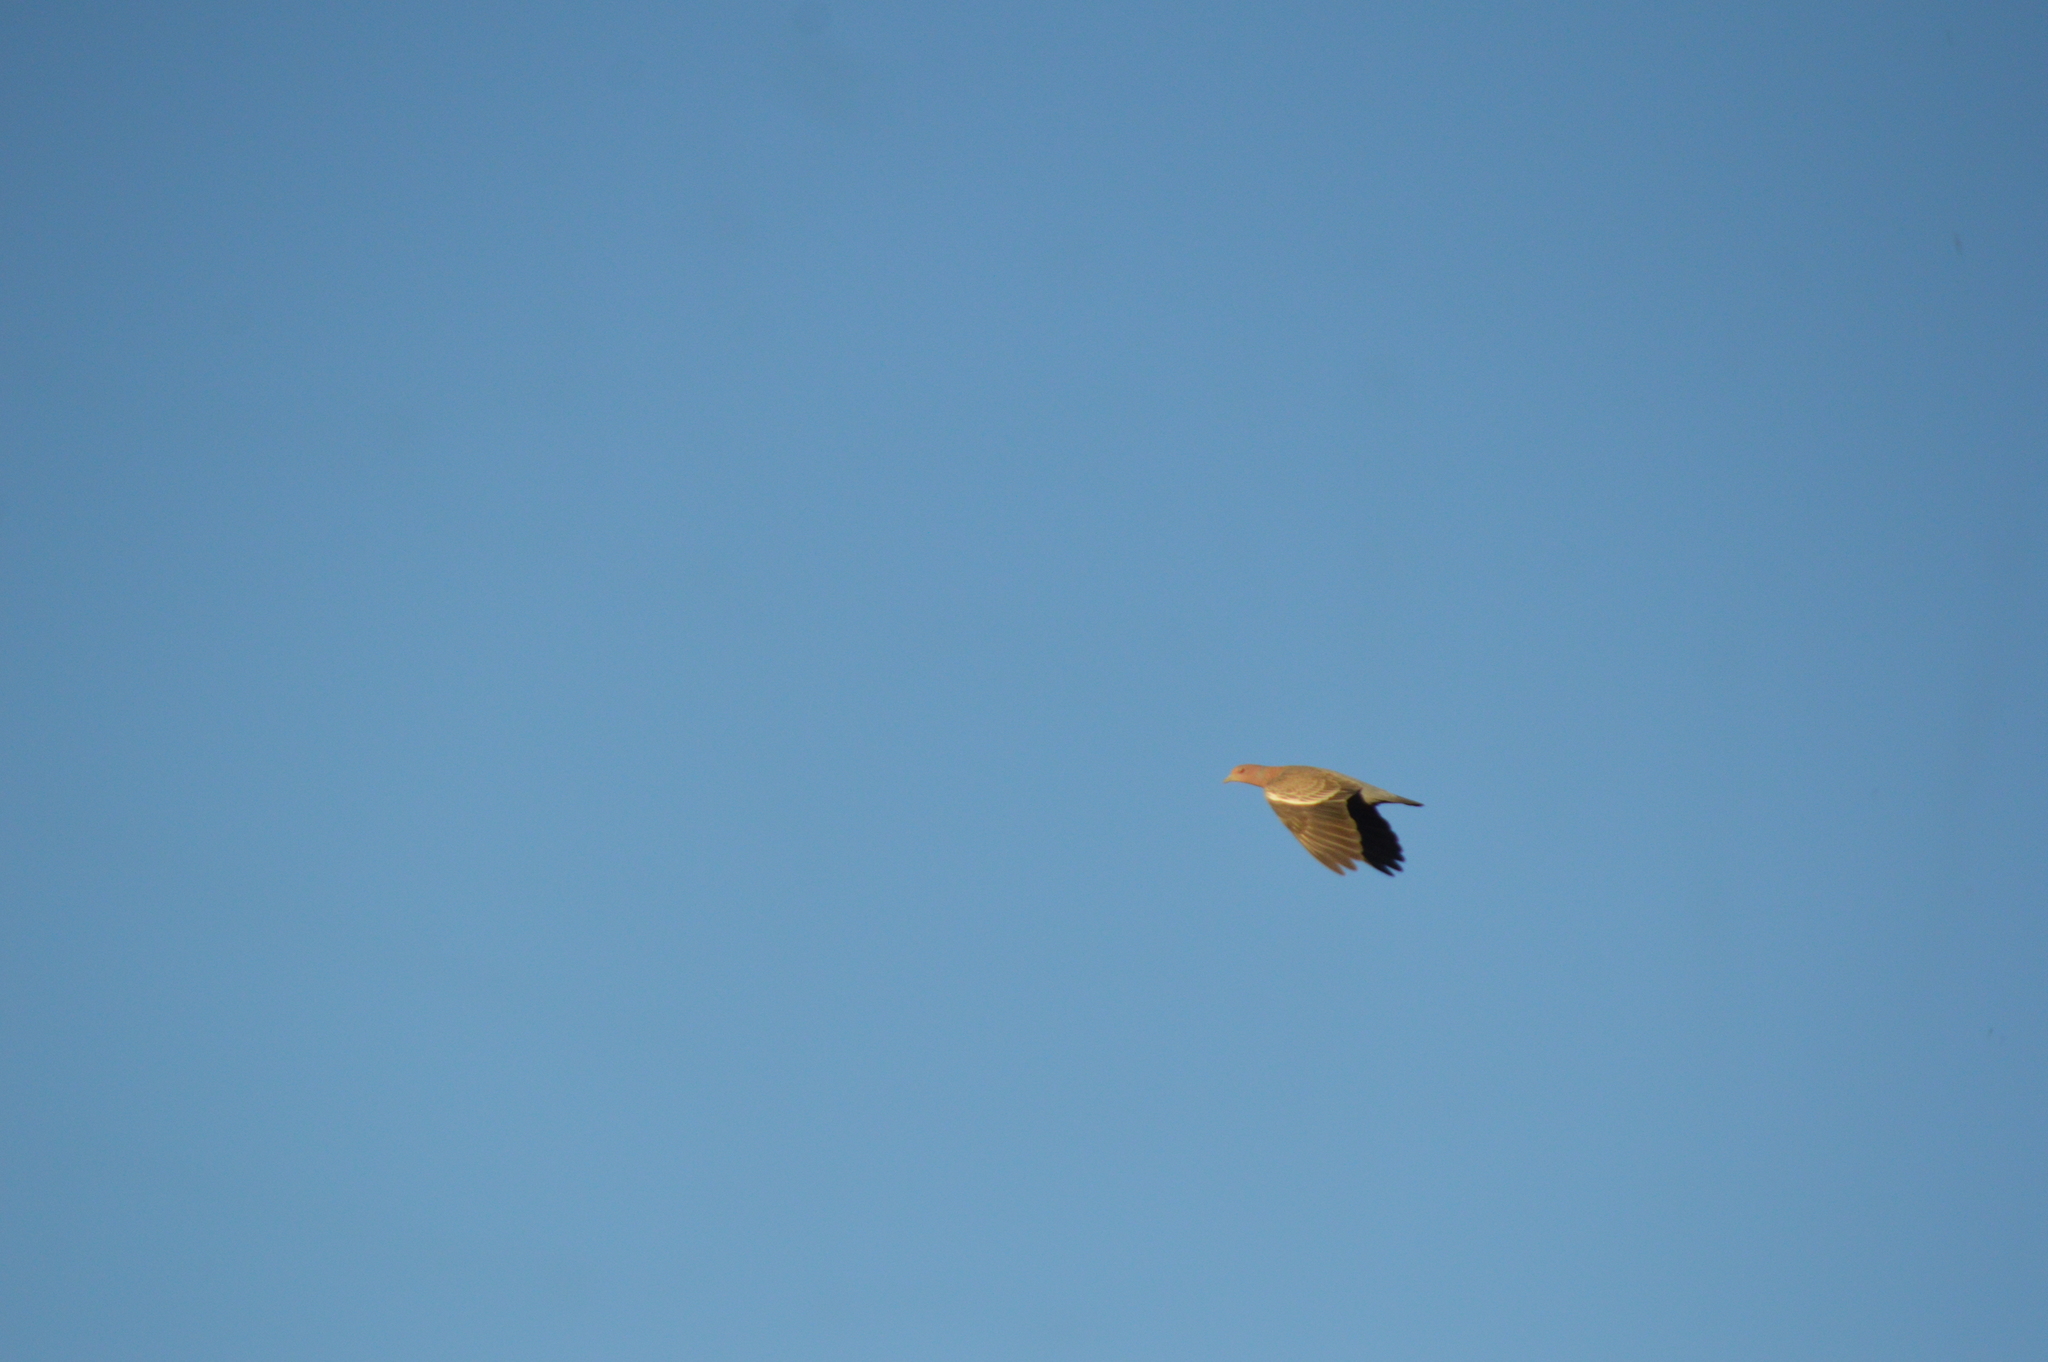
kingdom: Animalia
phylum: Chordata
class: Aves
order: Columbiformes
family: Columbidae
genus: Patagioenas
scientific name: Patagioenas picazuro
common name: Picazuro pigeon
